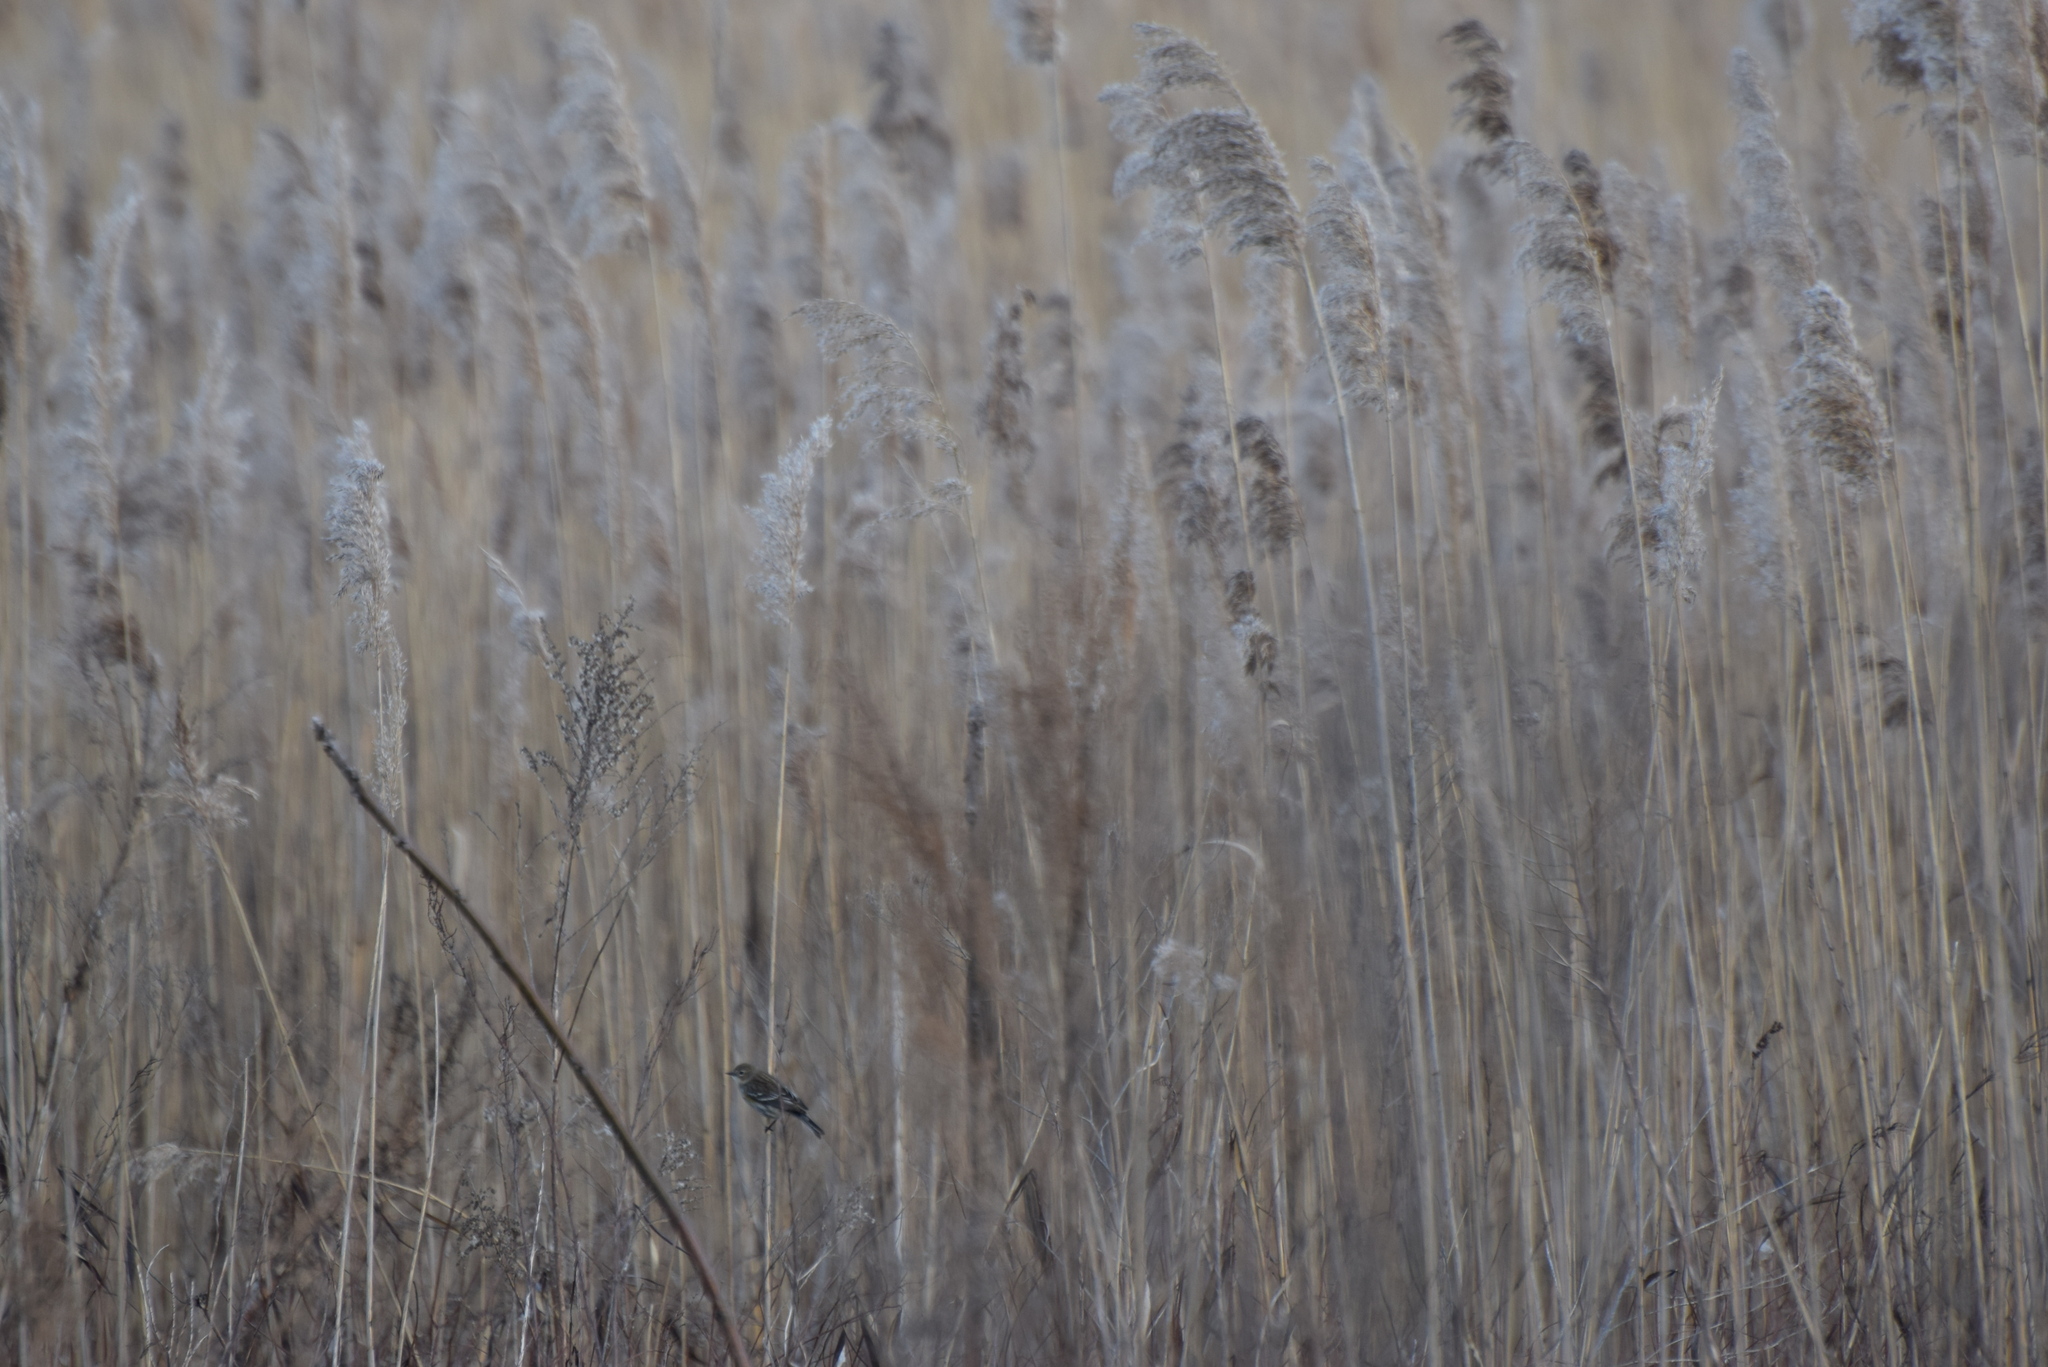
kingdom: Animalia
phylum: Chordata
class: Aves
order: Passeriformes
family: Parulidae
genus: Setophaga
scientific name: Setophaga coronata
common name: Myrtle warbler
